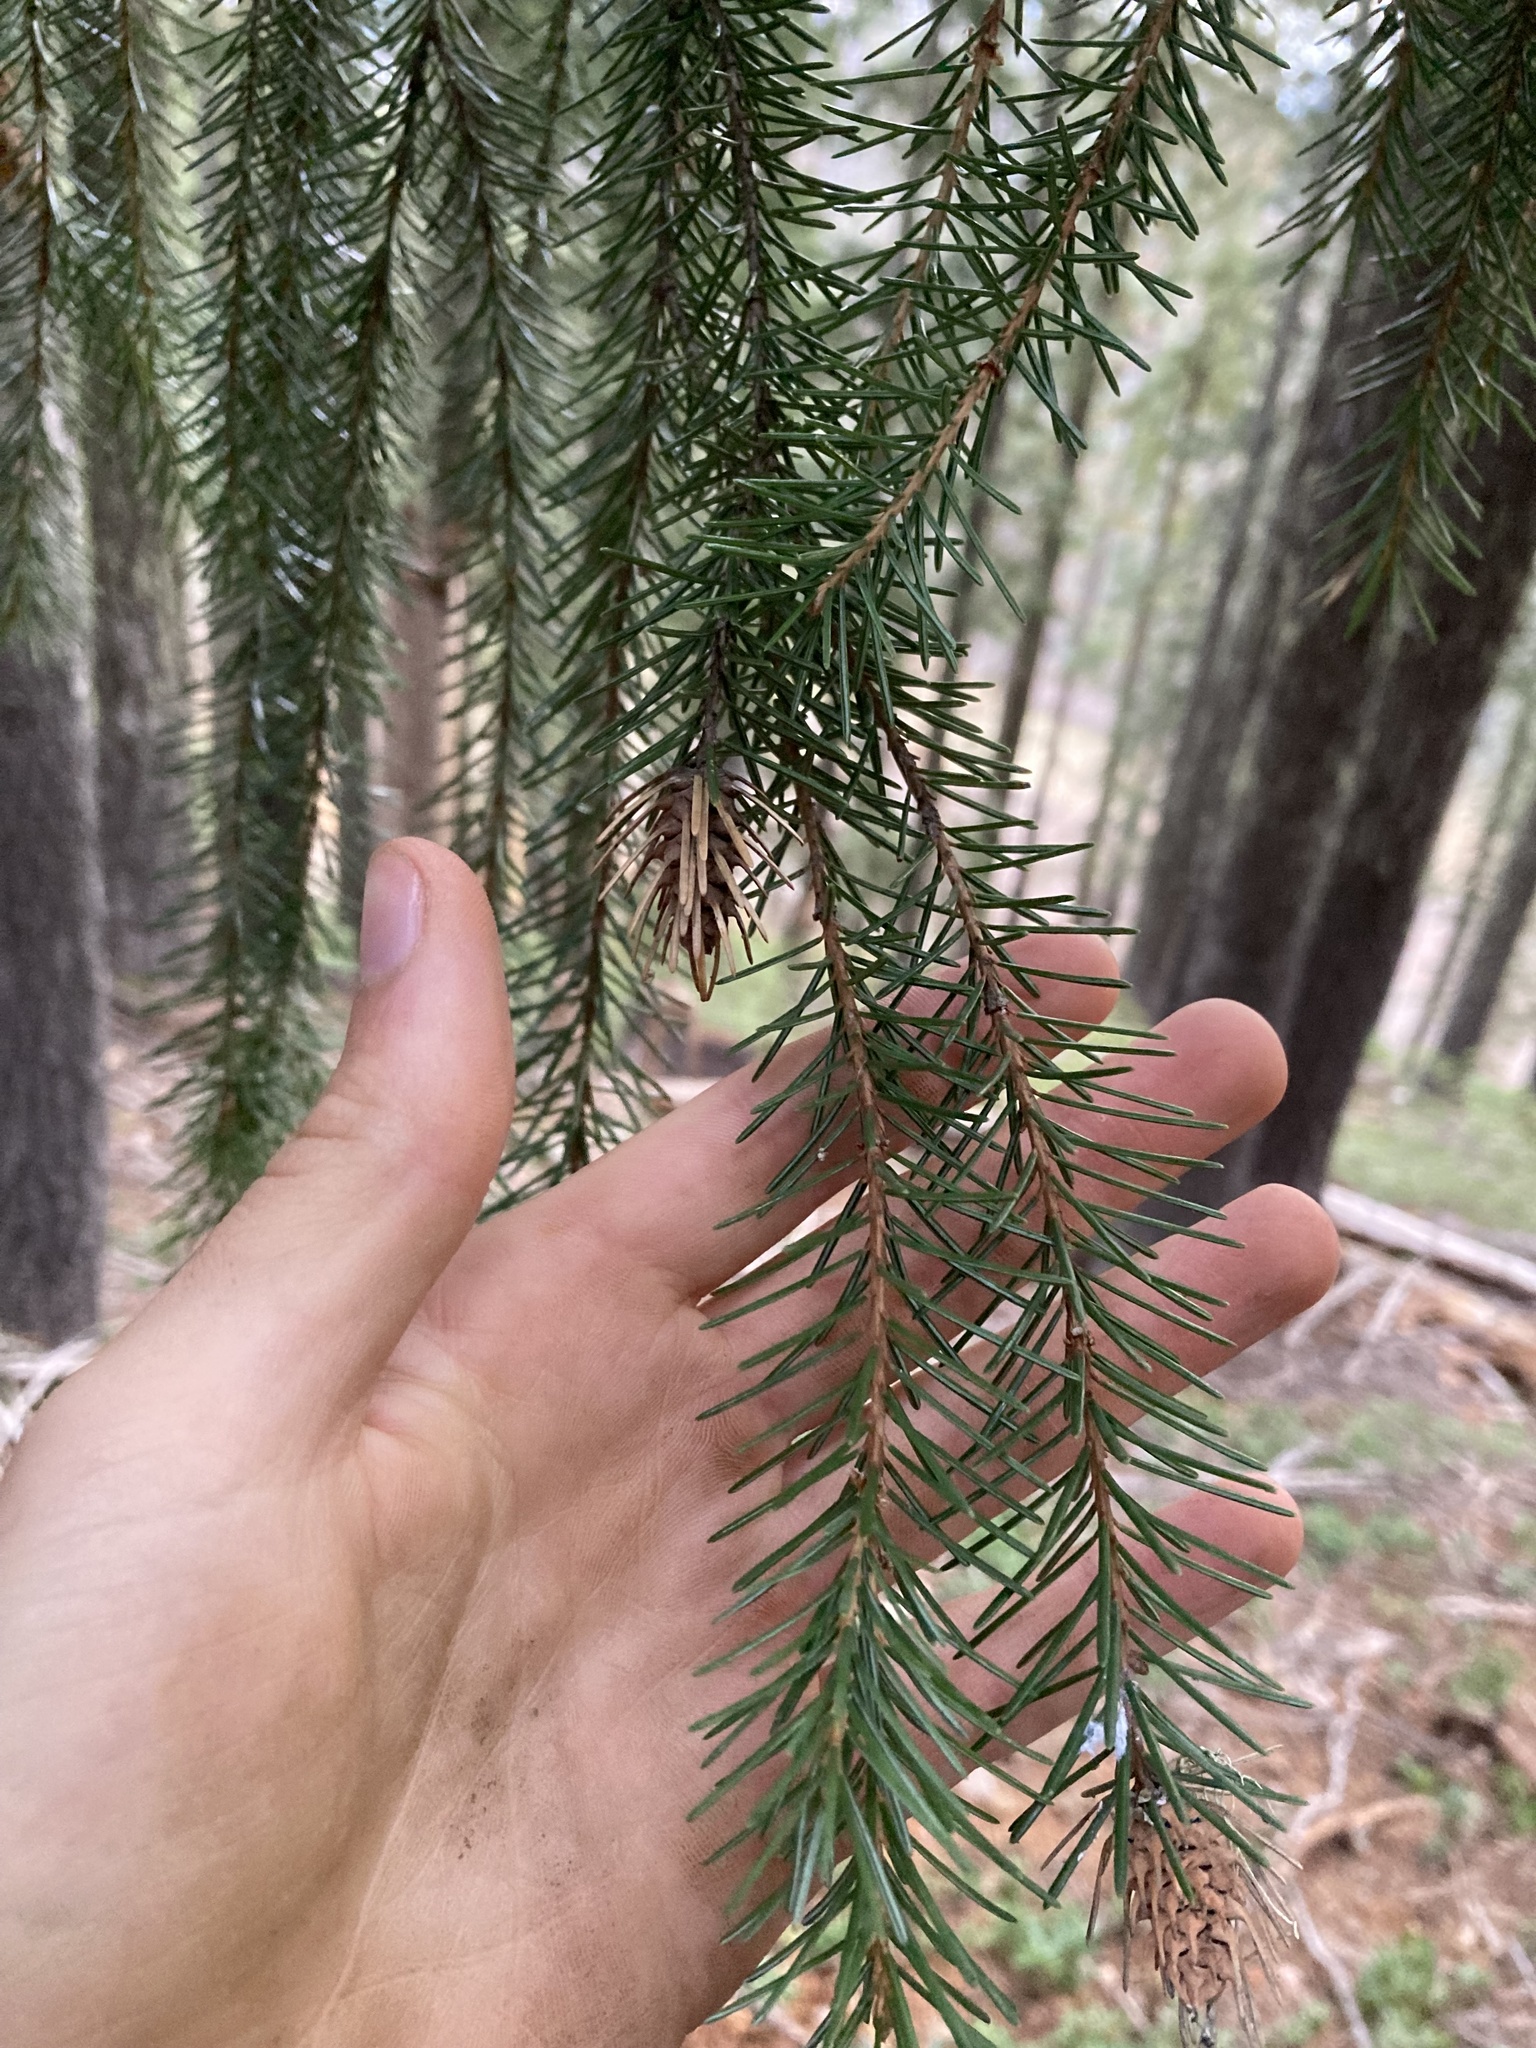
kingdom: Plantae
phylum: Tracheophyta
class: Pinopsida
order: Pinales
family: Pinaceae
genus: Picea
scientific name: Picea breweriana
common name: Brewer's spruce
